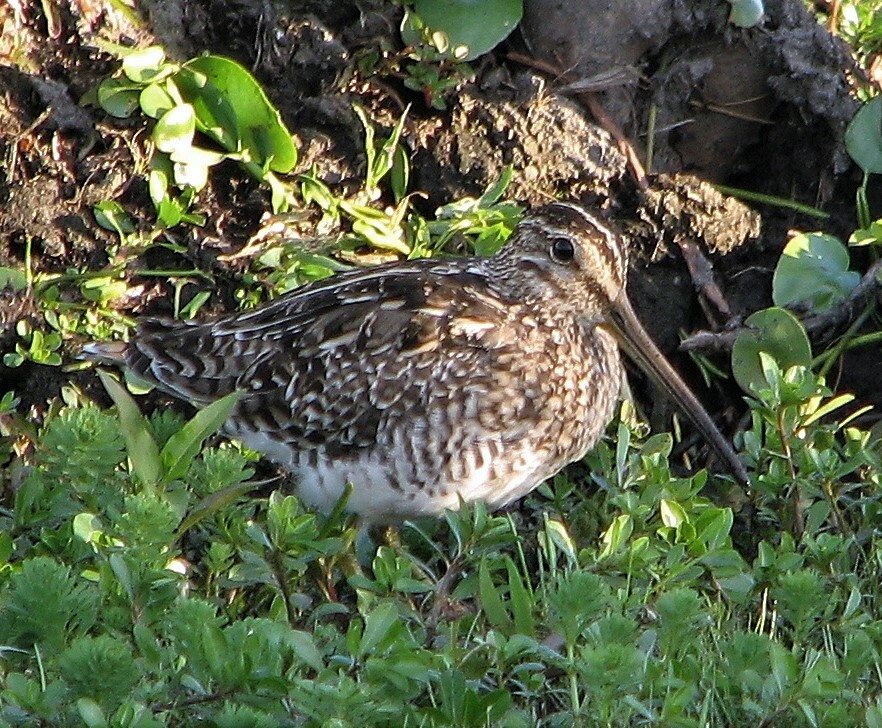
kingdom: Animalia
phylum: Chordata
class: Aves
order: Charadriiformes
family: Scolopacidae
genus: Gallinago
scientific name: Gallinago paraguaiae
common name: South american snipe
